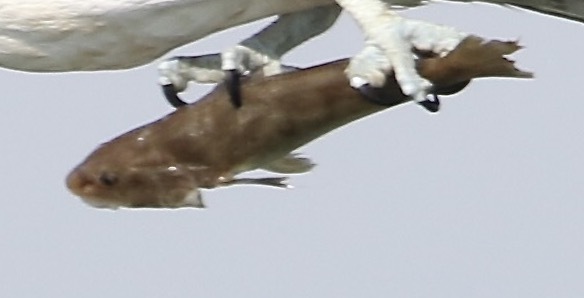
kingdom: Animalia
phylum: Chordata
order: Perciformes
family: Sciaenidae
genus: Menticirrhus
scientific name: Menticirrhus americanus
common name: Southern kingfish
